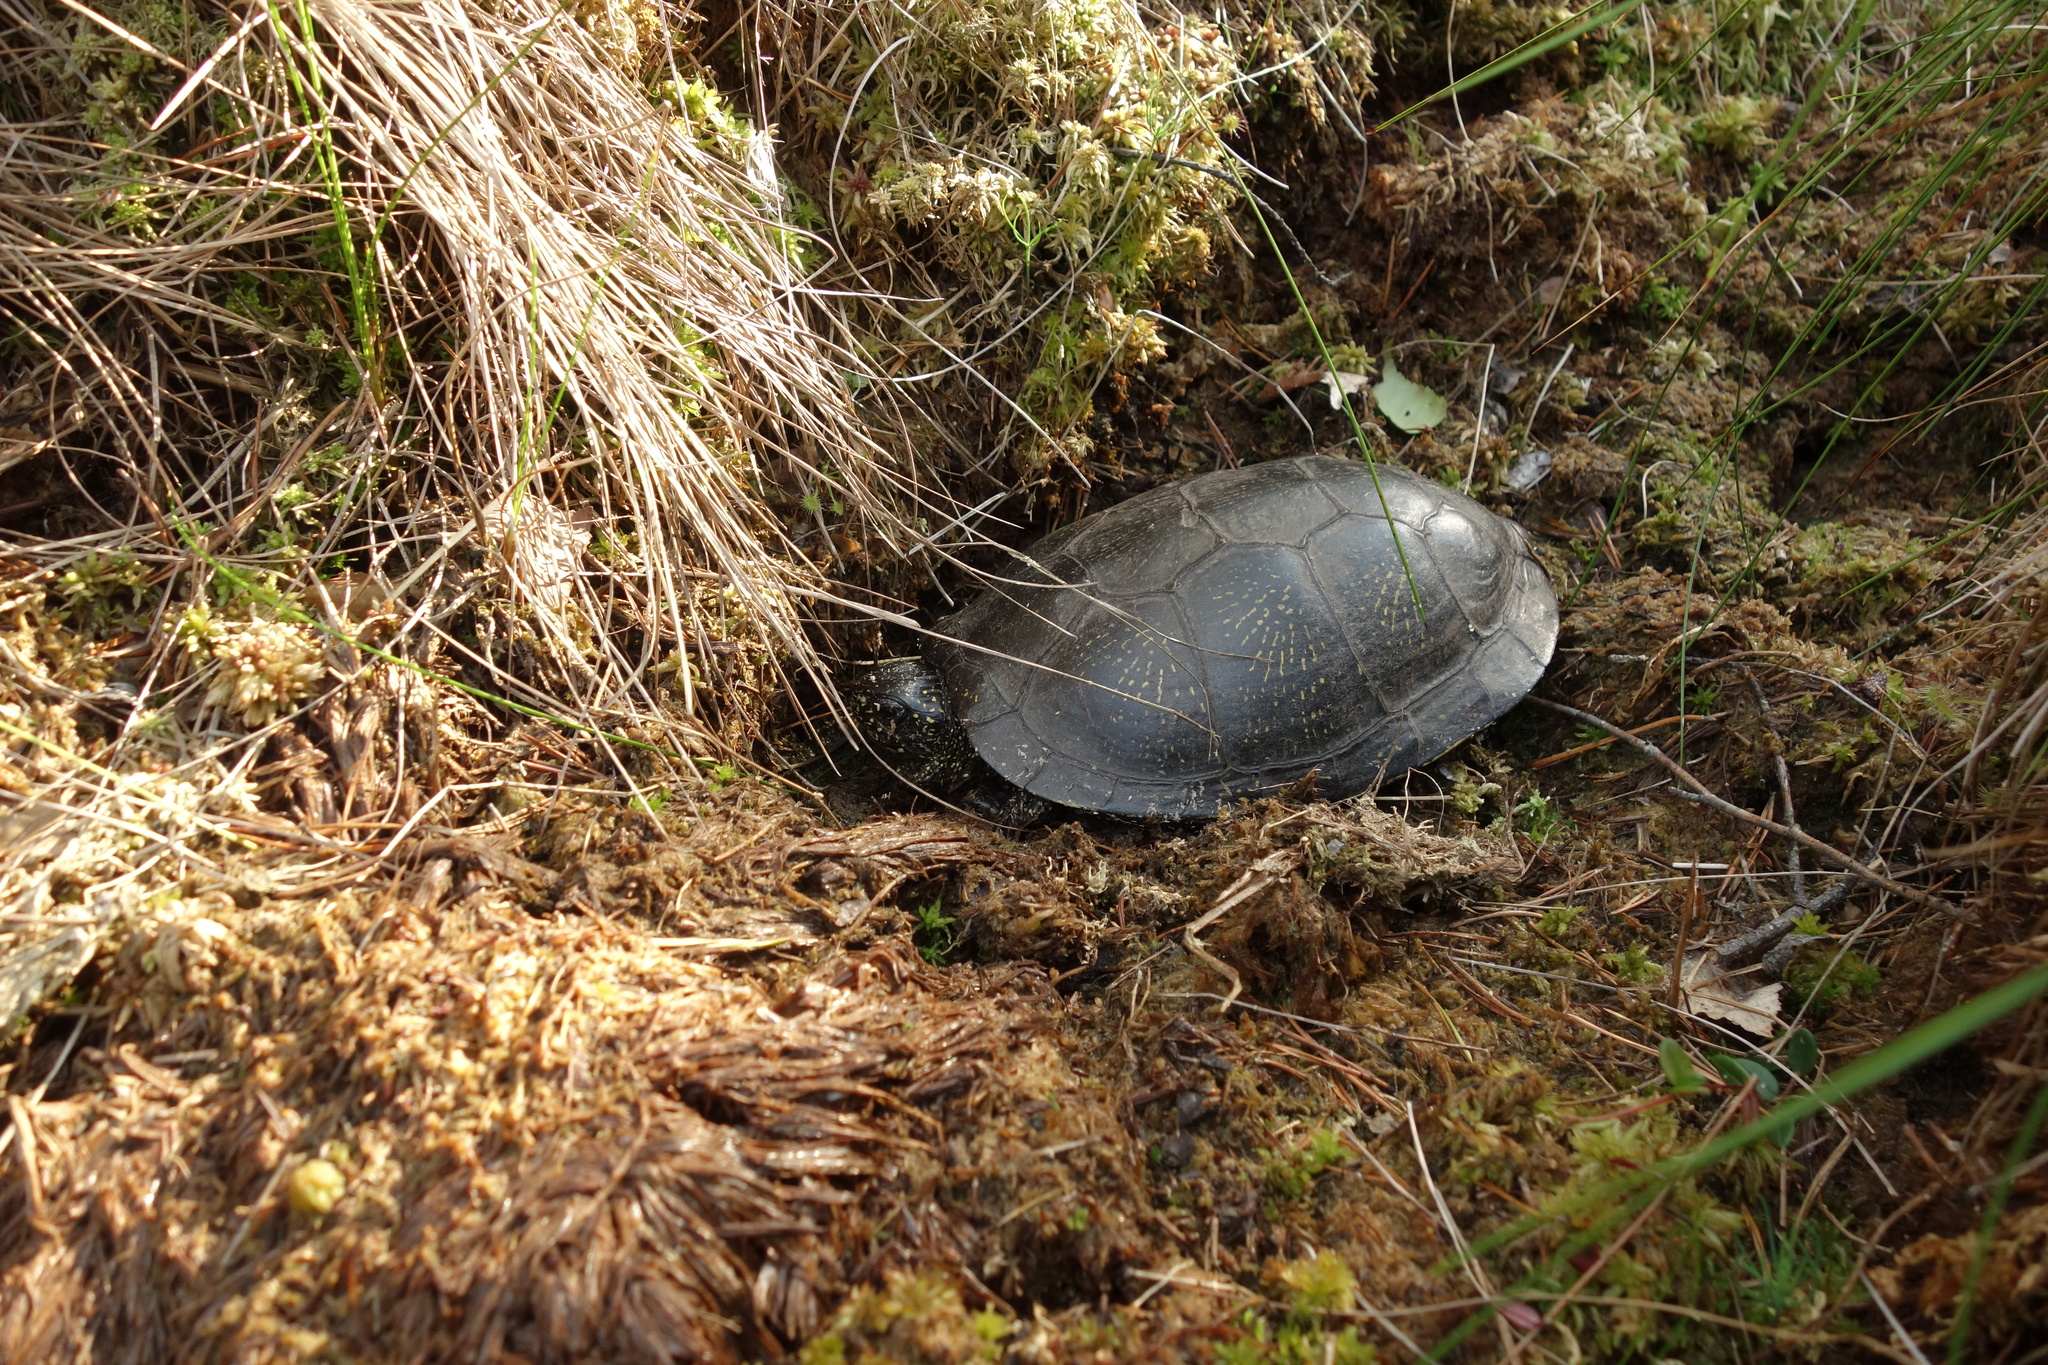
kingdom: Animalia
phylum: Chordata
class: Testudines
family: Emydidae
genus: Emys
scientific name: Emys orbicularis
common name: European pond turtle
